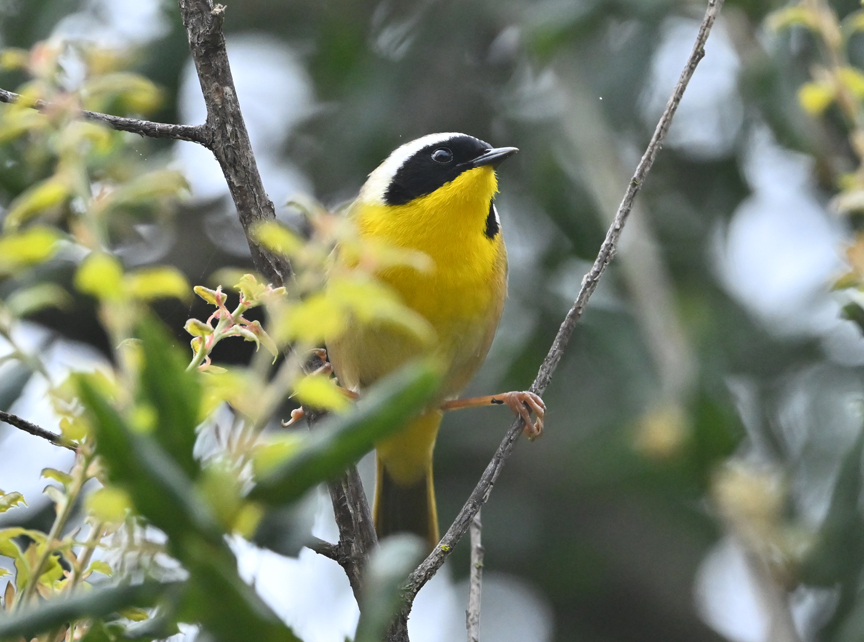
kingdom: Animalia
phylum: Chordata
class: Aves
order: Passeriformes
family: Parulidae
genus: Geothlypis
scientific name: Geothlypis trichas
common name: Common yellowthroat
